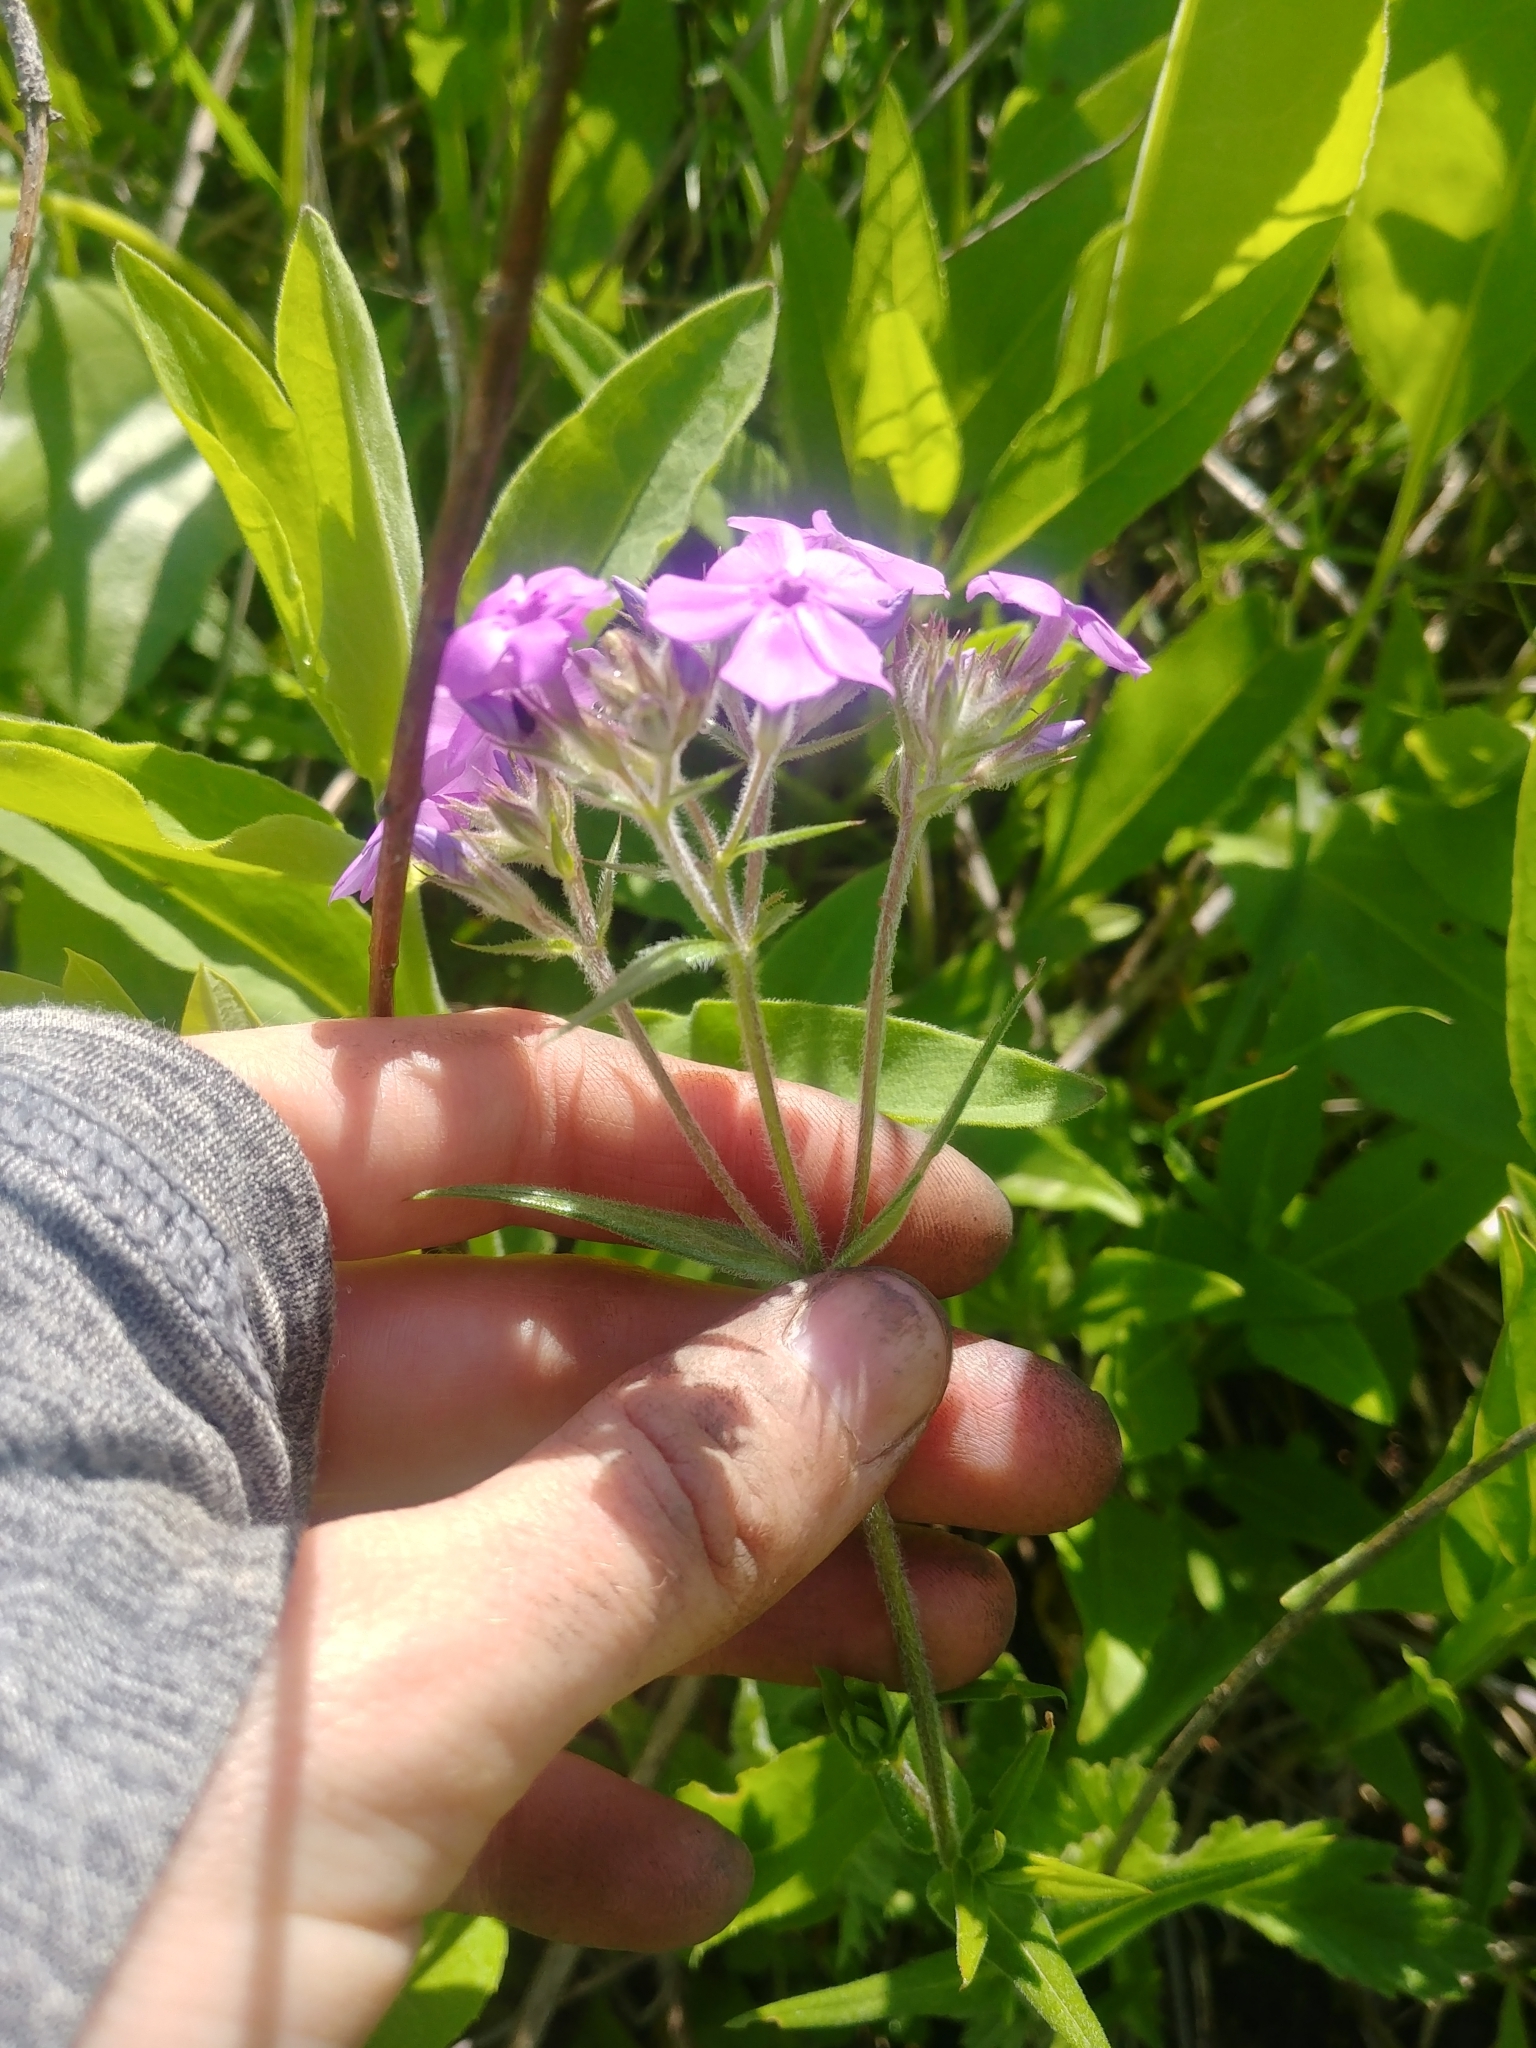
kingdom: Plantae
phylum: Tracheophyta
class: Magnoliopsida
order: Ericales
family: Polemoniaceae
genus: Phlox
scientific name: Phlox pilosa
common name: Prairie phlox
